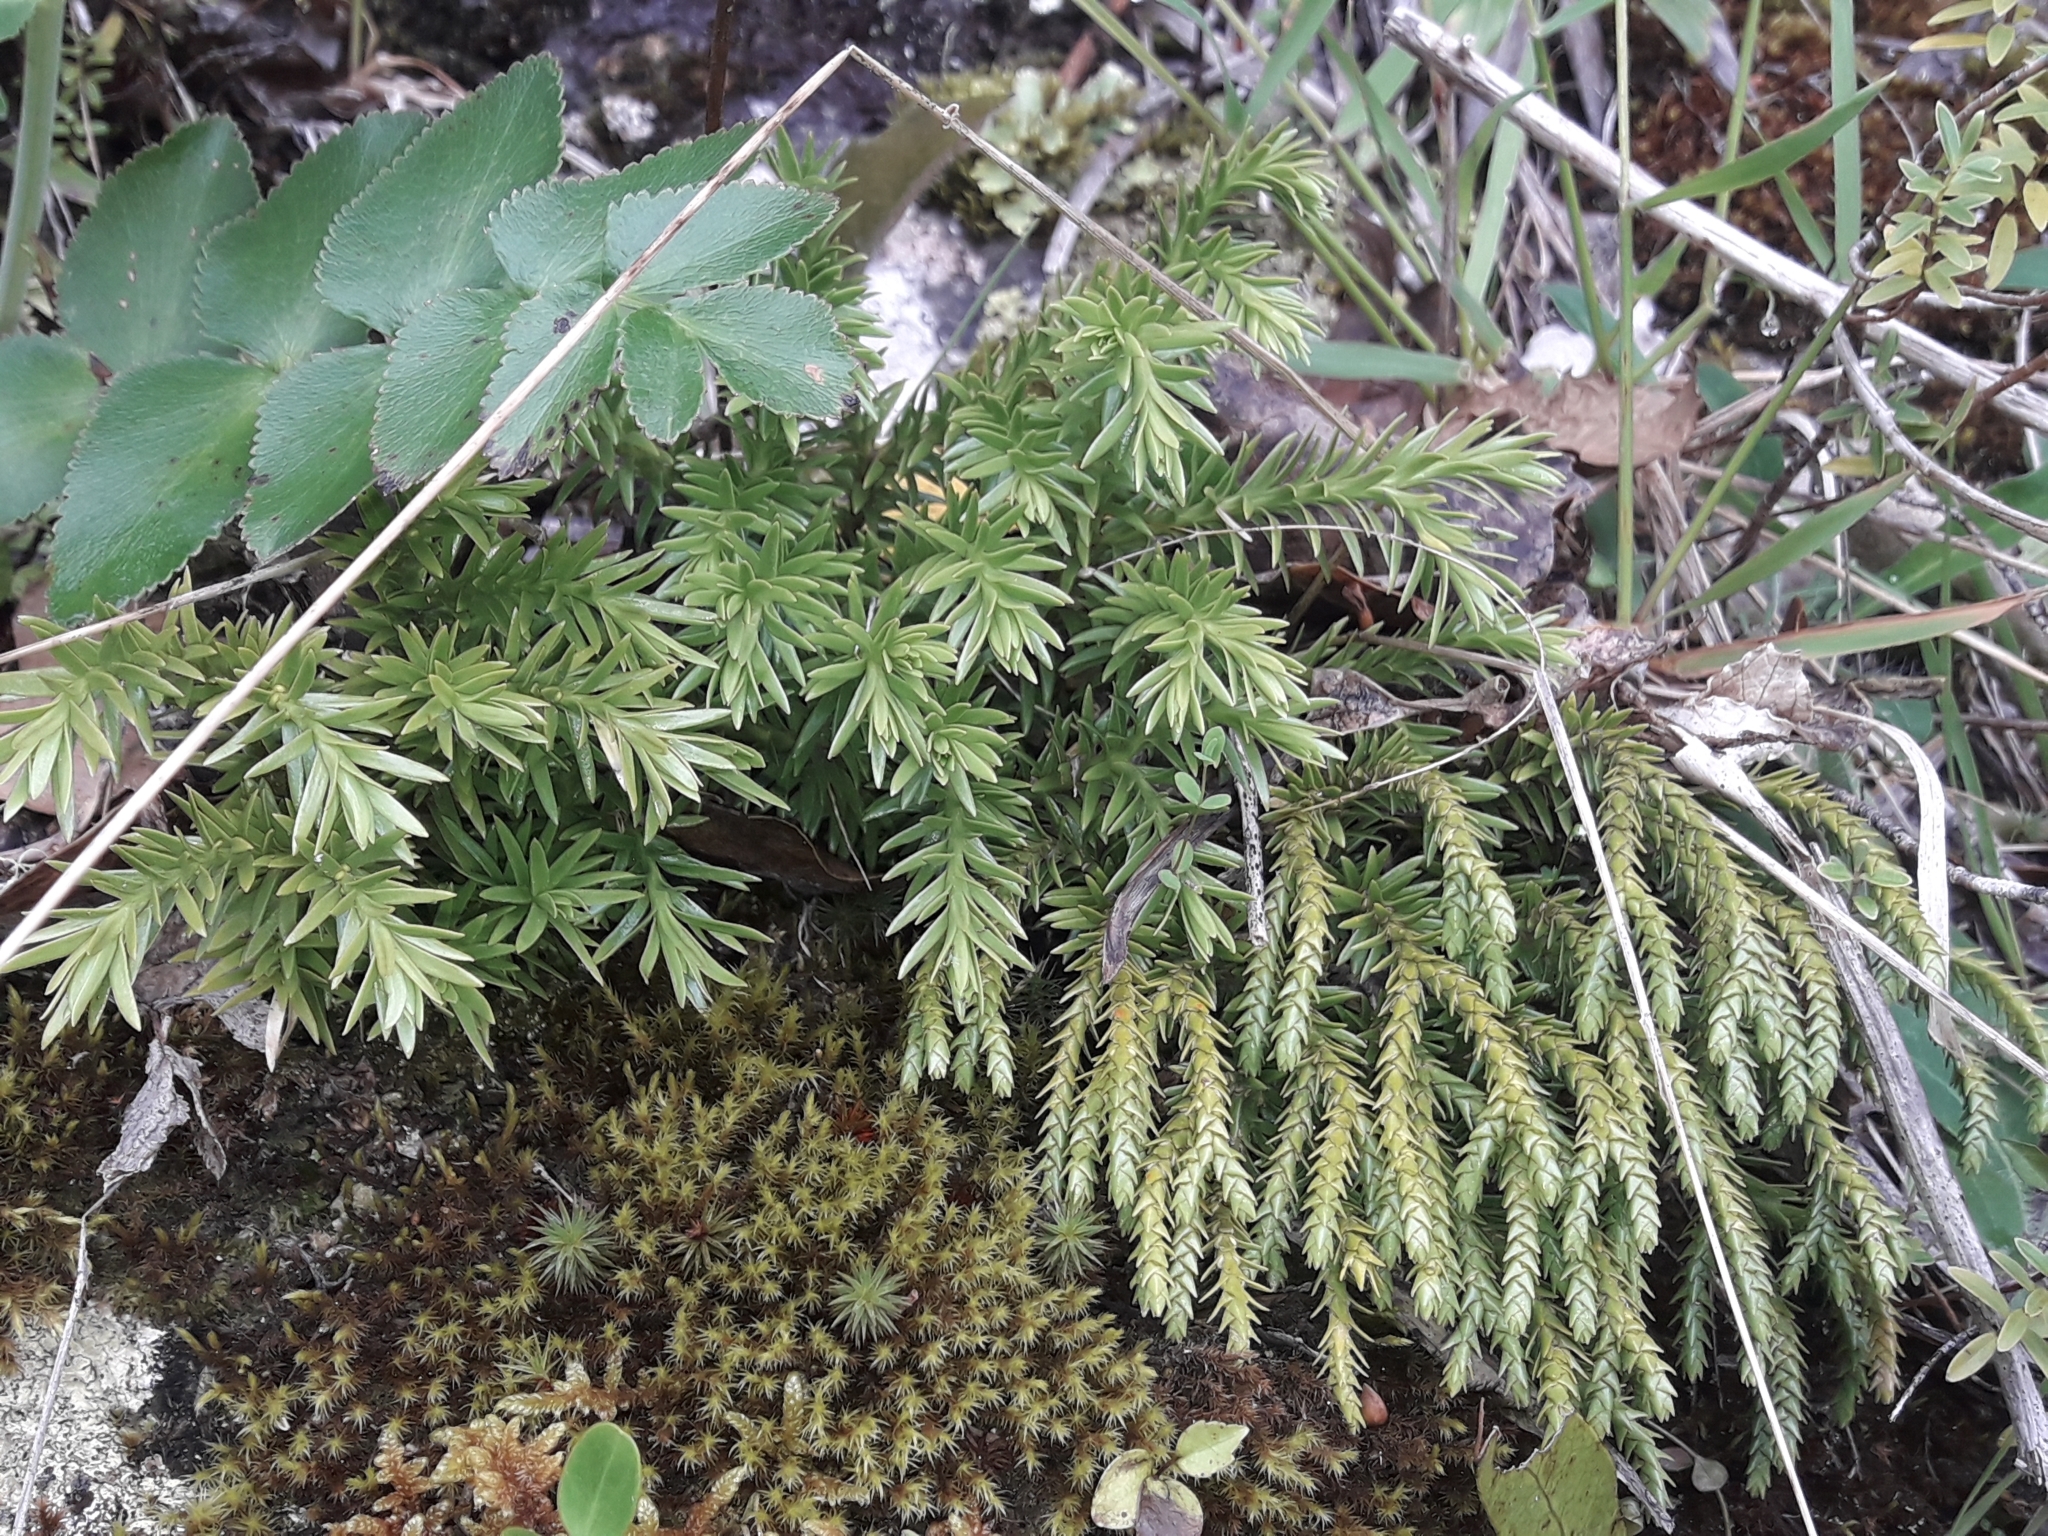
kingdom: Plantae
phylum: Tracheophyta
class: Lycopodiopsida
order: Lycopodiales
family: Lycopodiaceae
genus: Phlegmariurus
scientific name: Phlegmariurus varius
